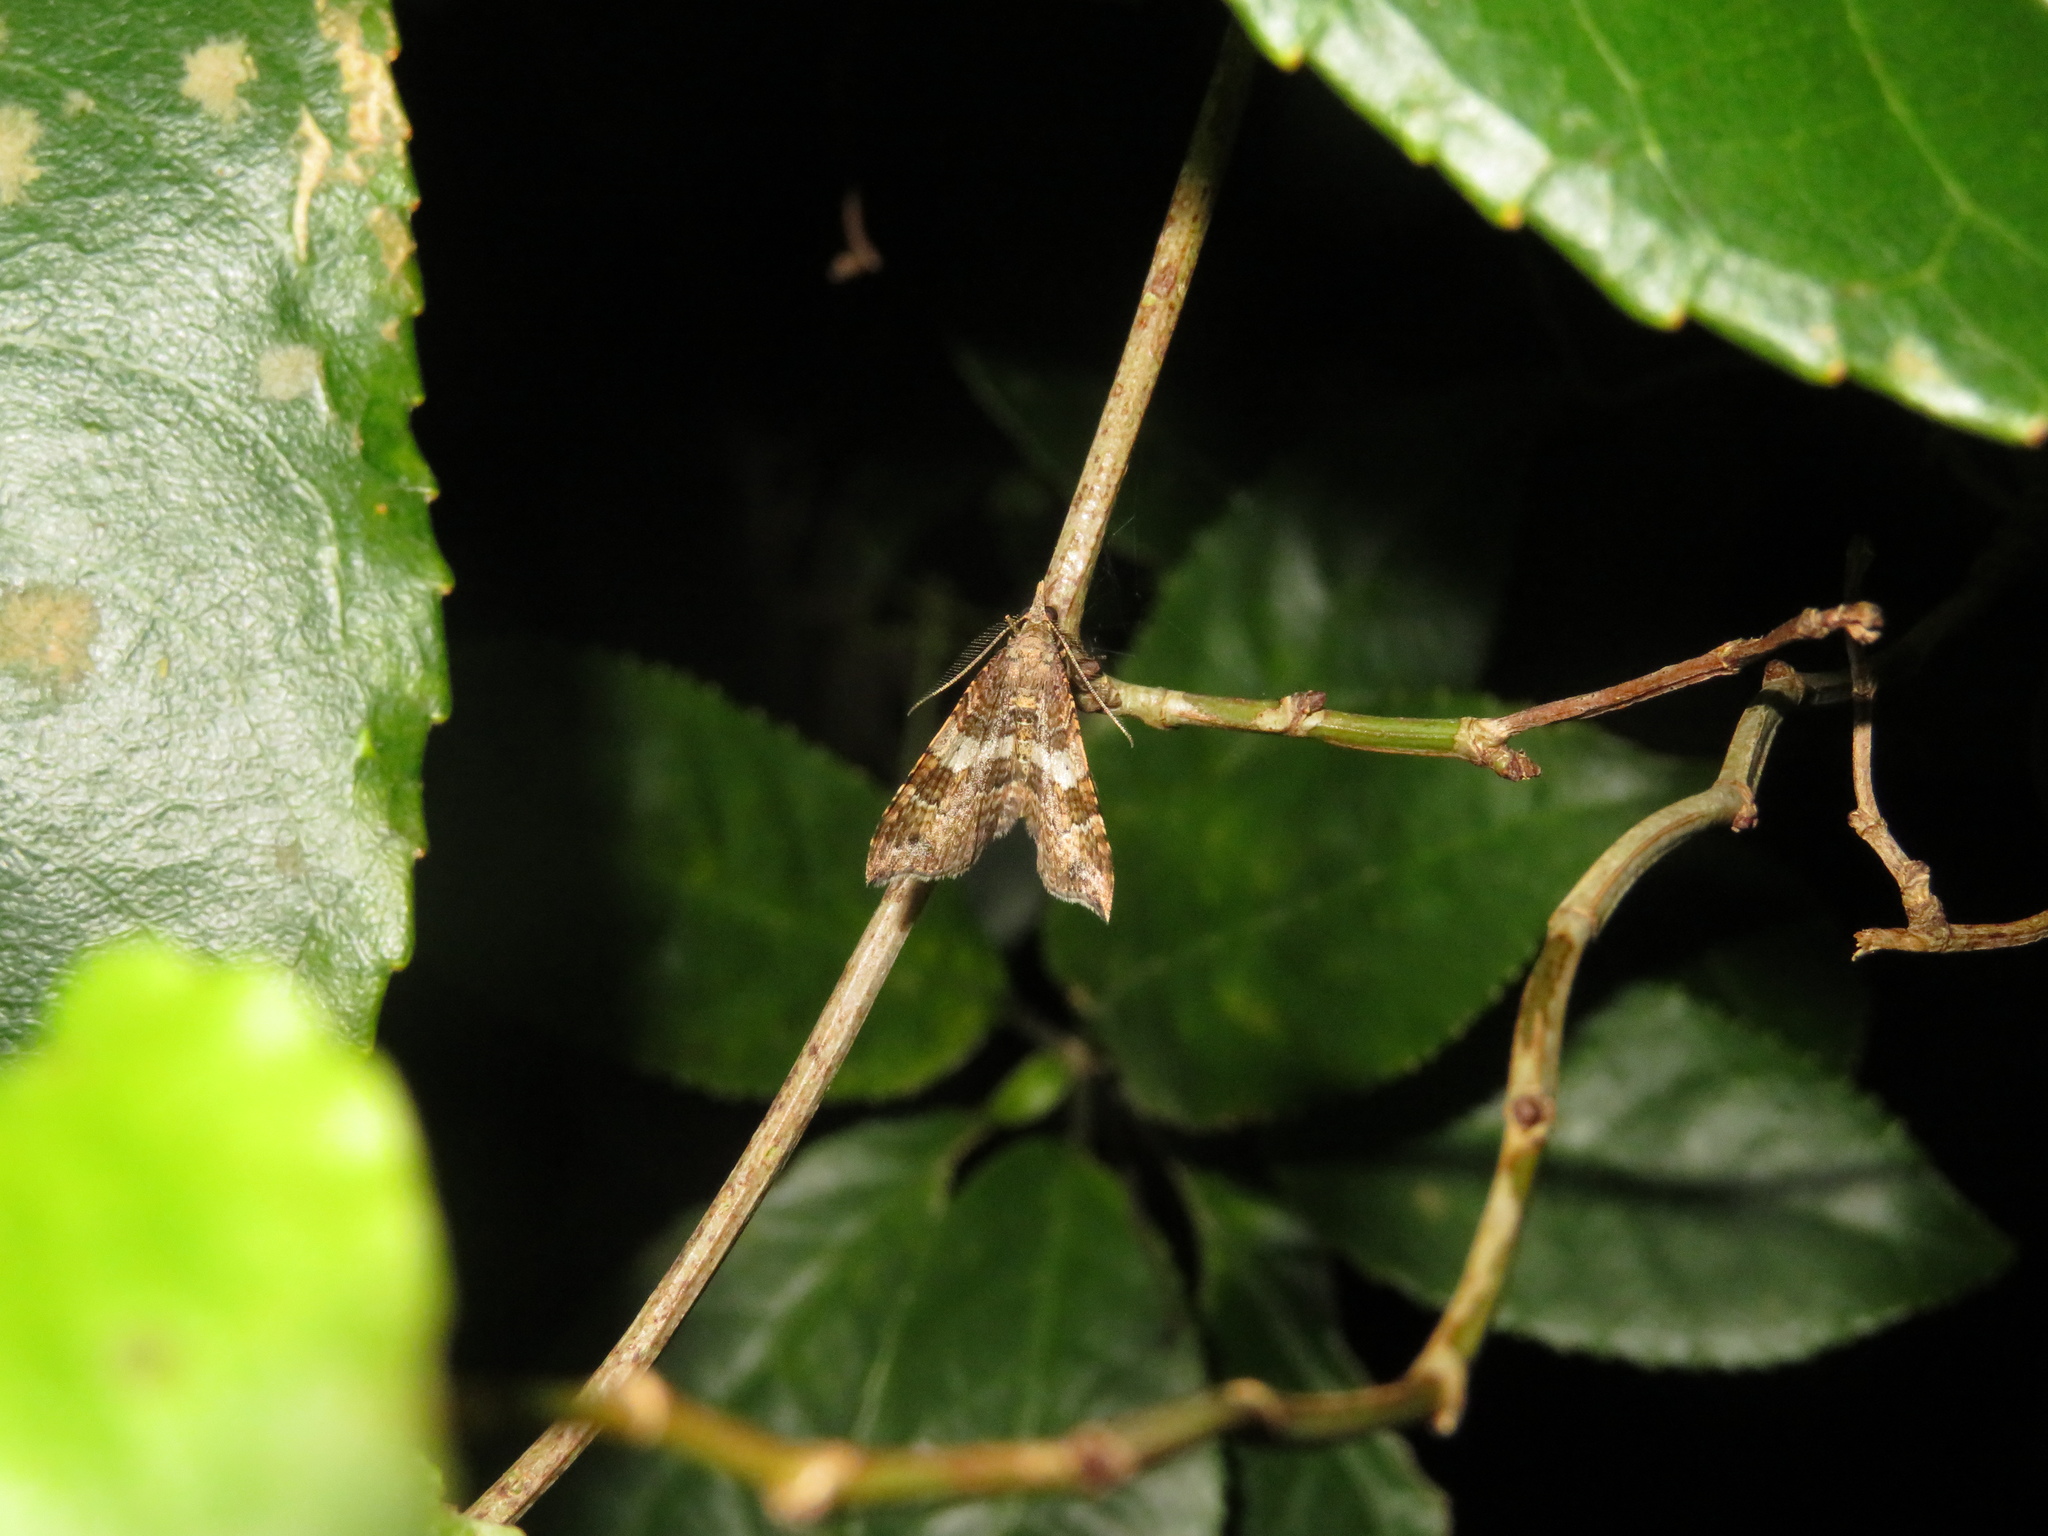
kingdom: Animalia
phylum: Arthropoda
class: Insecta
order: Lepidoptera
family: Geometridae
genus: Homodotis
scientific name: Homodotis megaspilata
